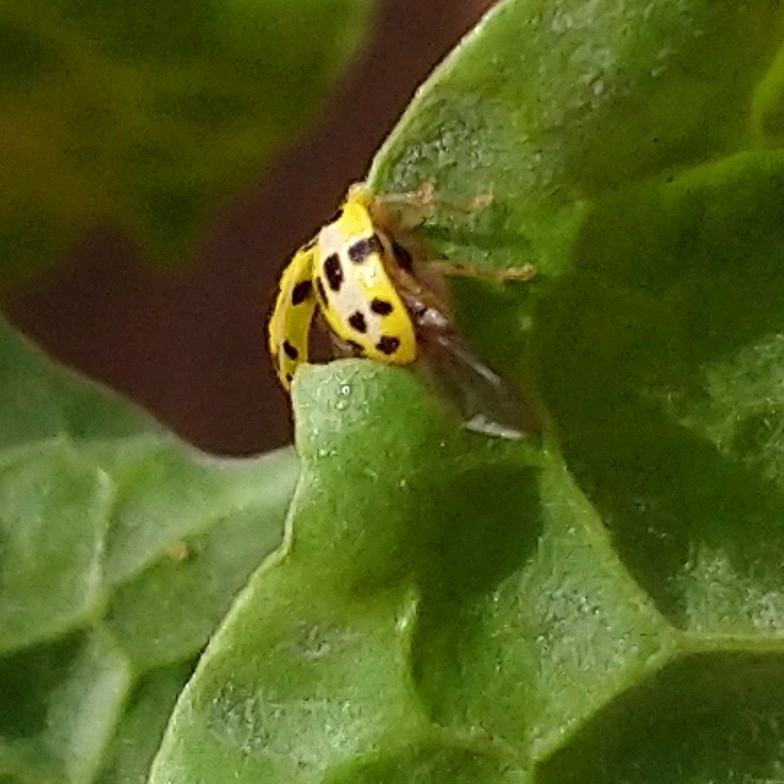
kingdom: Animalia
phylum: Arthropoda
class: Insecta
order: Coleoptera
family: Coccinellidae
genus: Psyllobora
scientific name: Psyllobora variegata
